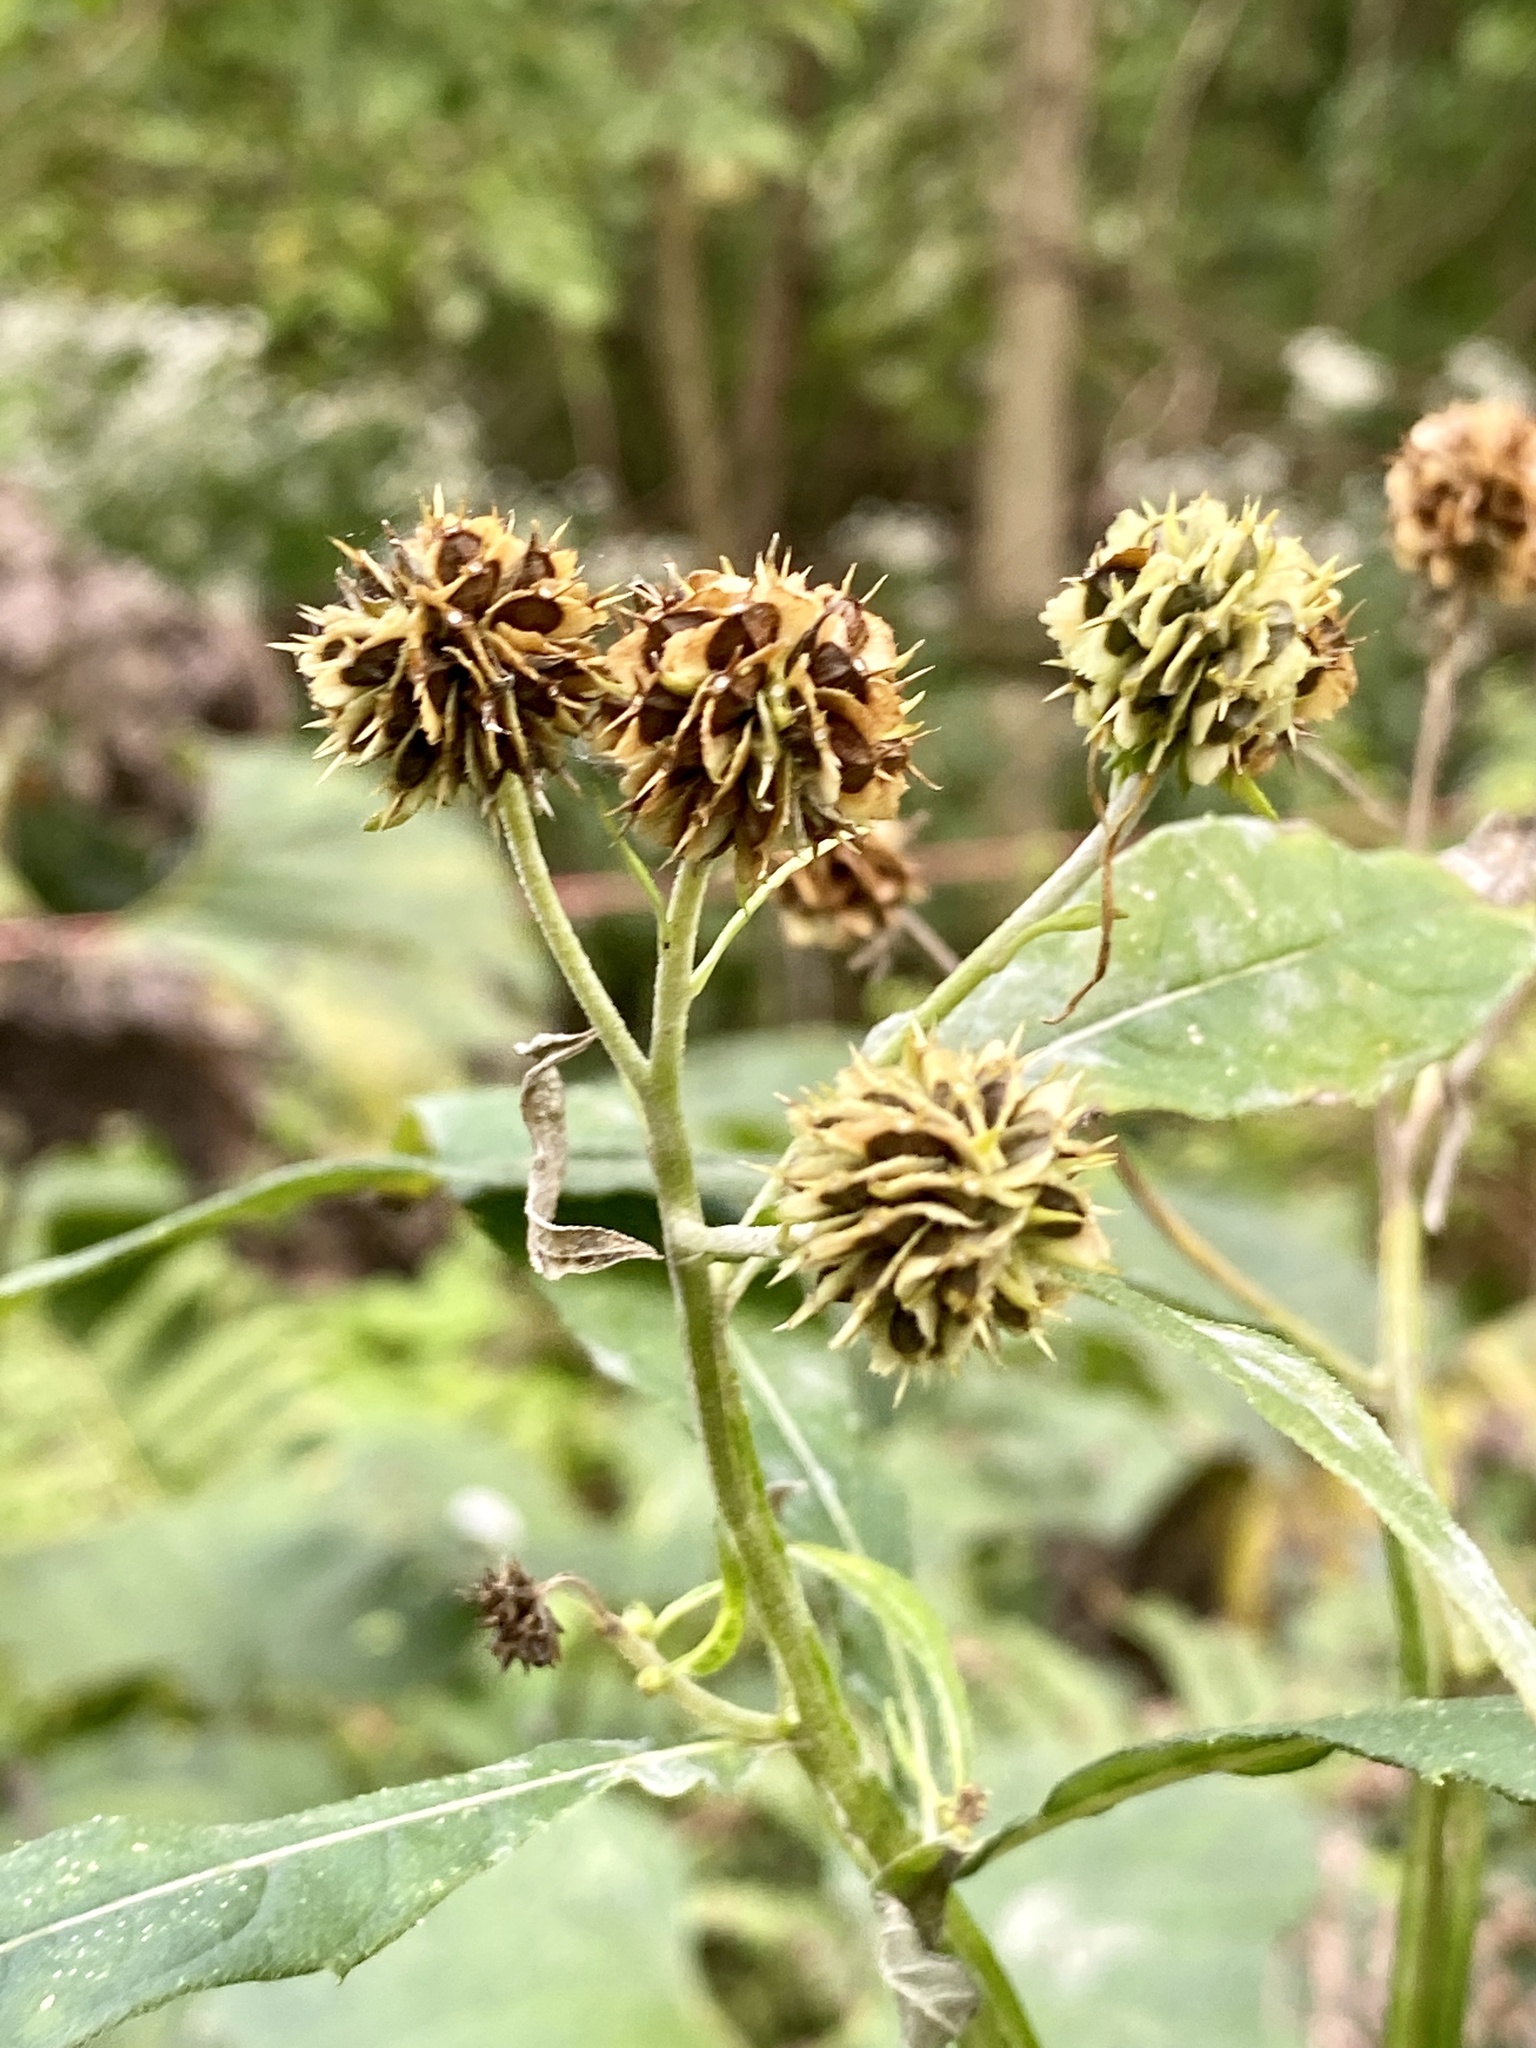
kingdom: Plantae
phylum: Tracheophyta
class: Magnoliopsida
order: Asterales
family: Asteraceae
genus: Verbesina
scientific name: Verbesina alternifolia
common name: Wingstem
